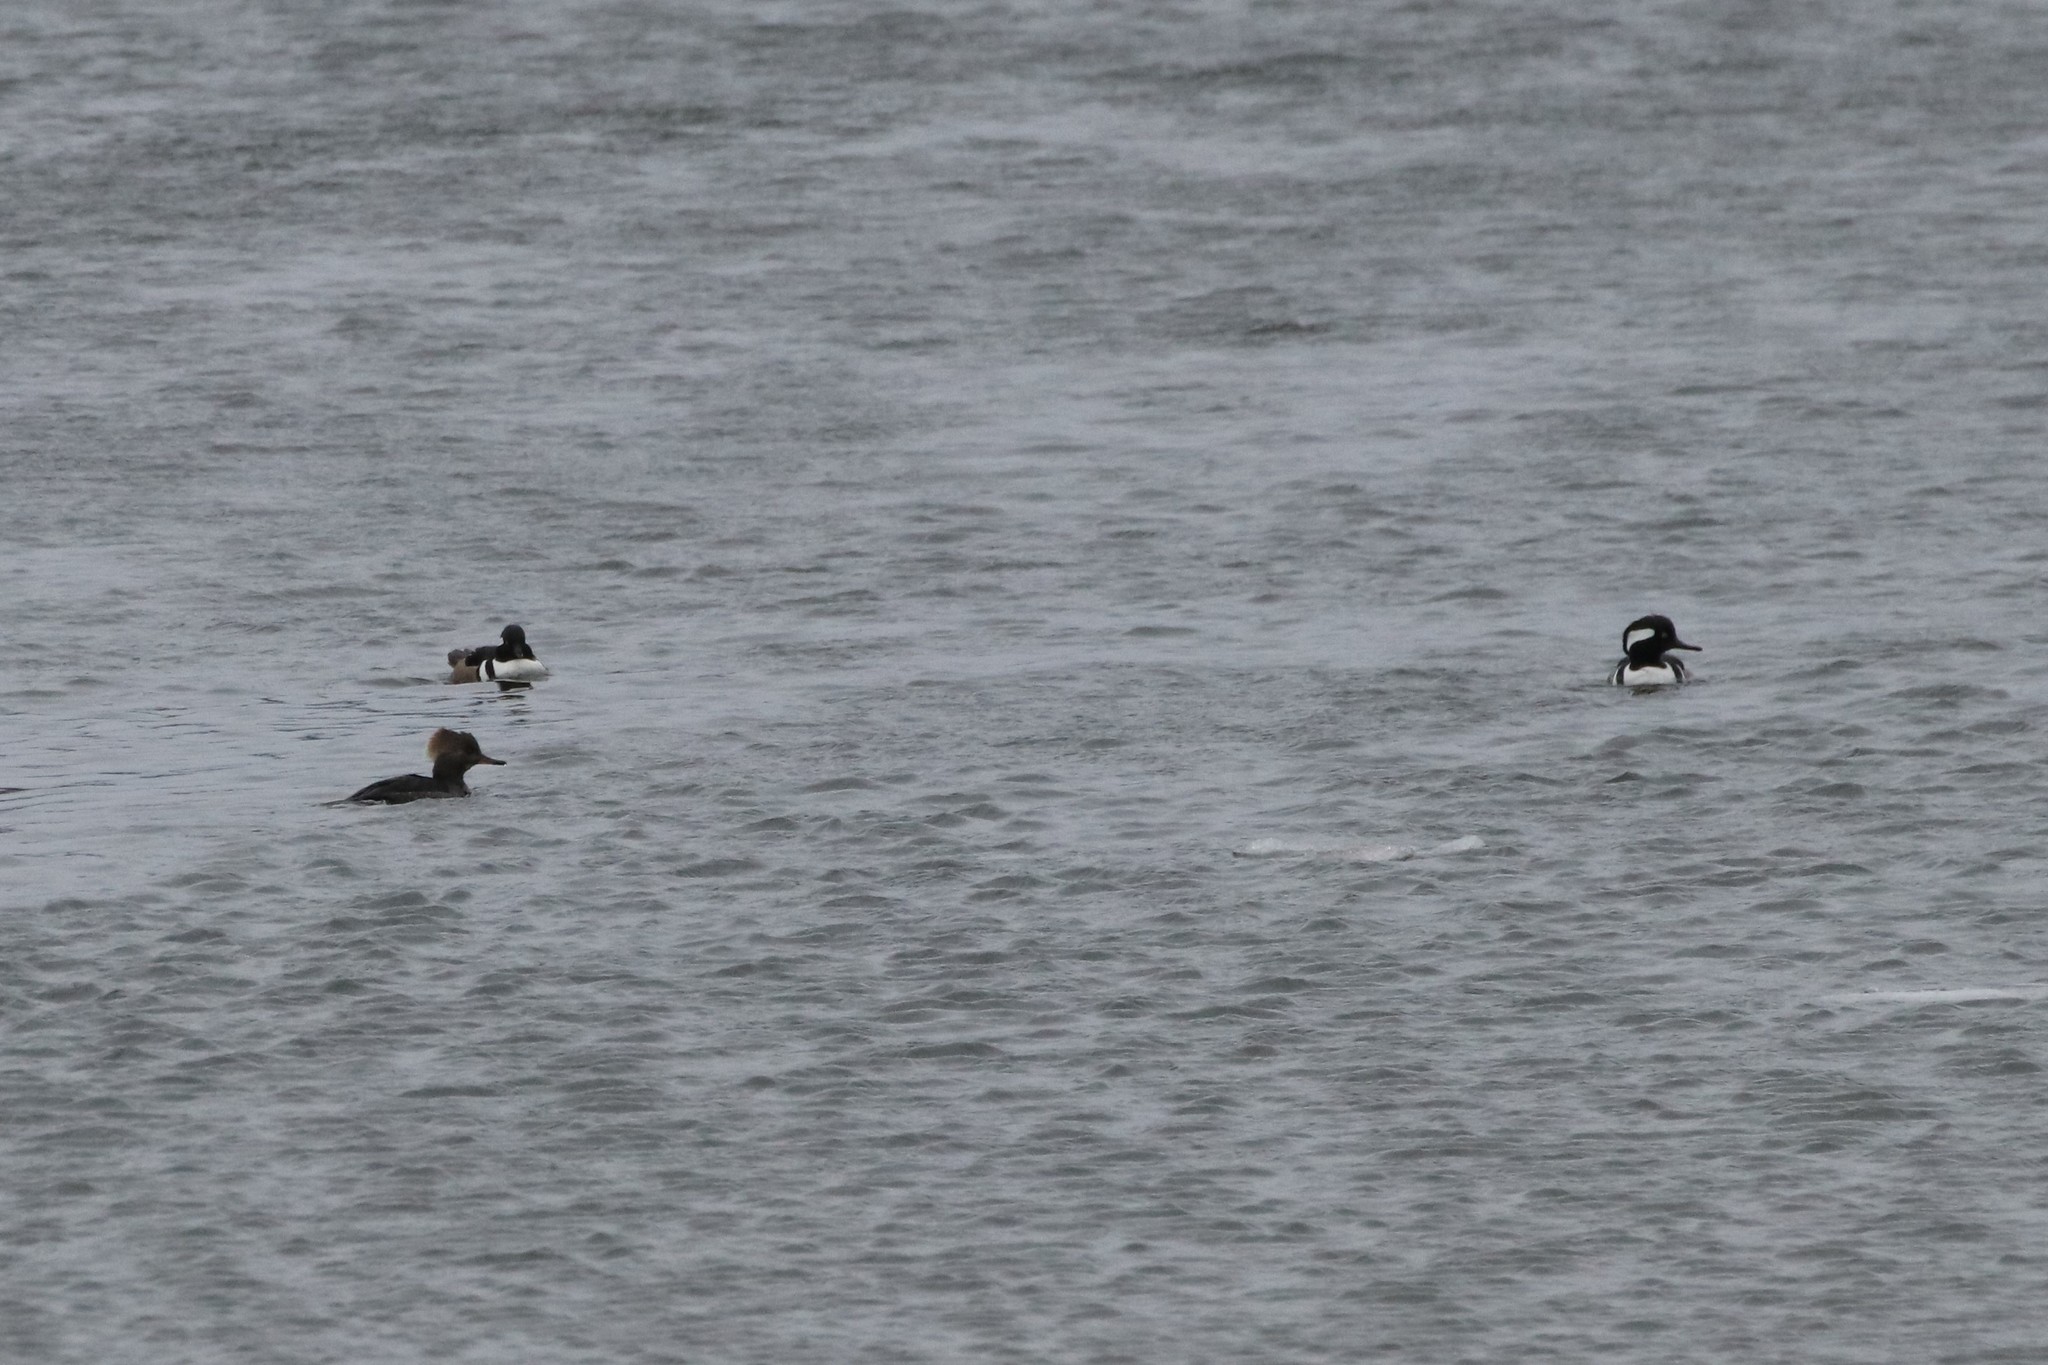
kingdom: Animalia
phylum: Chordata
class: Aves
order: Anseriformes
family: Anatidae
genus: Lophodytes
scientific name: Lophodytes cucullatus
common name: Hooded merganser
